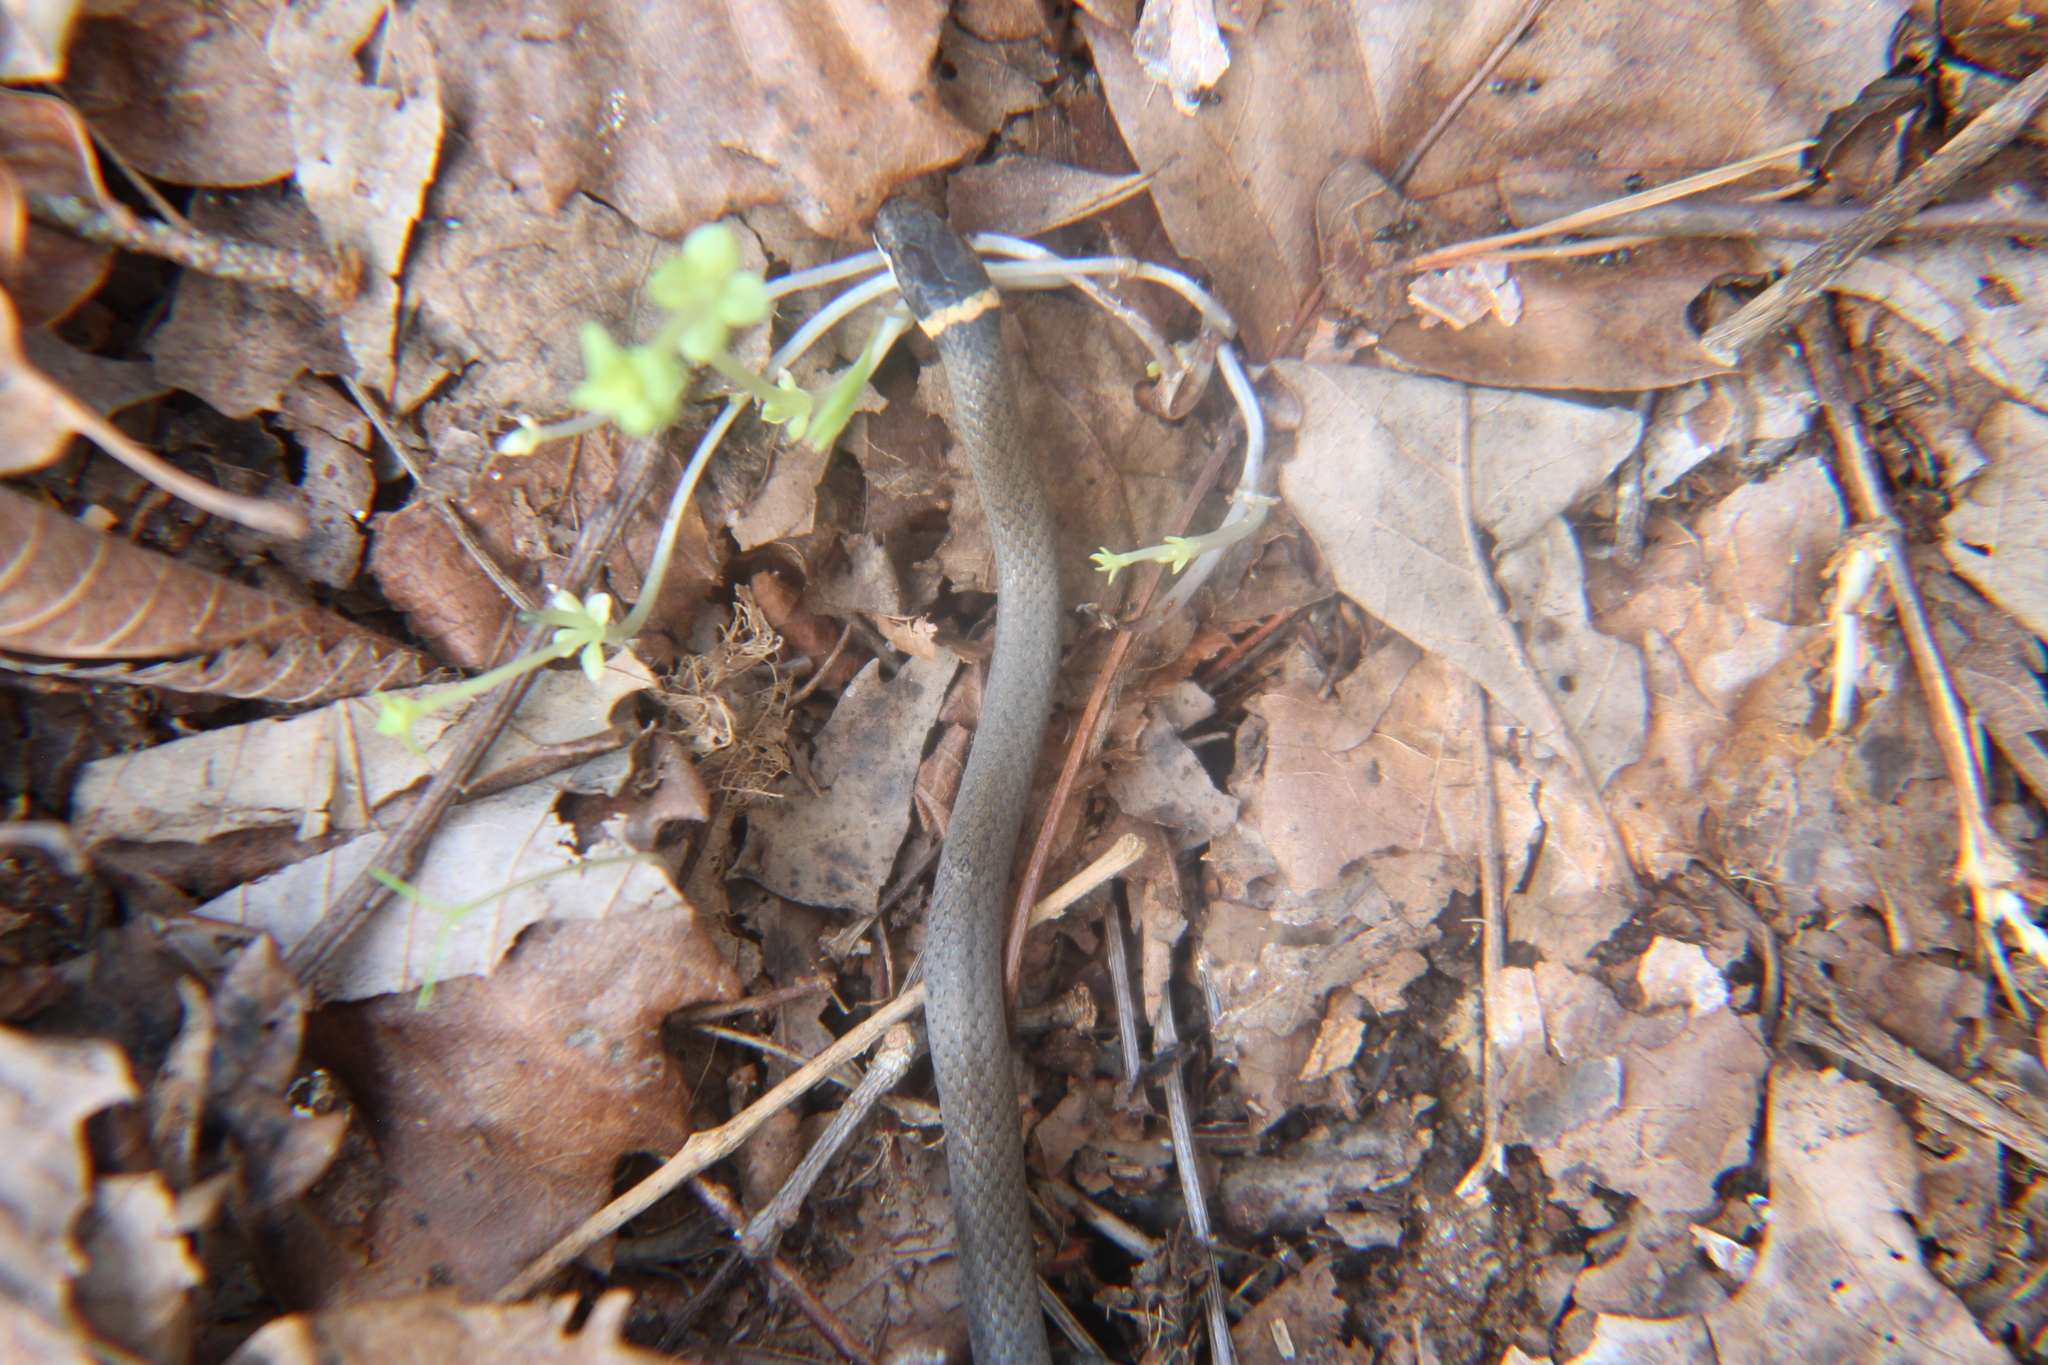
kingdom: Animalia
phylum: Chordata
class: Squamata
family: Colubridae
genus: Diadophis
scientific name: Diadophis punctatus
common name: Ringneck snake
